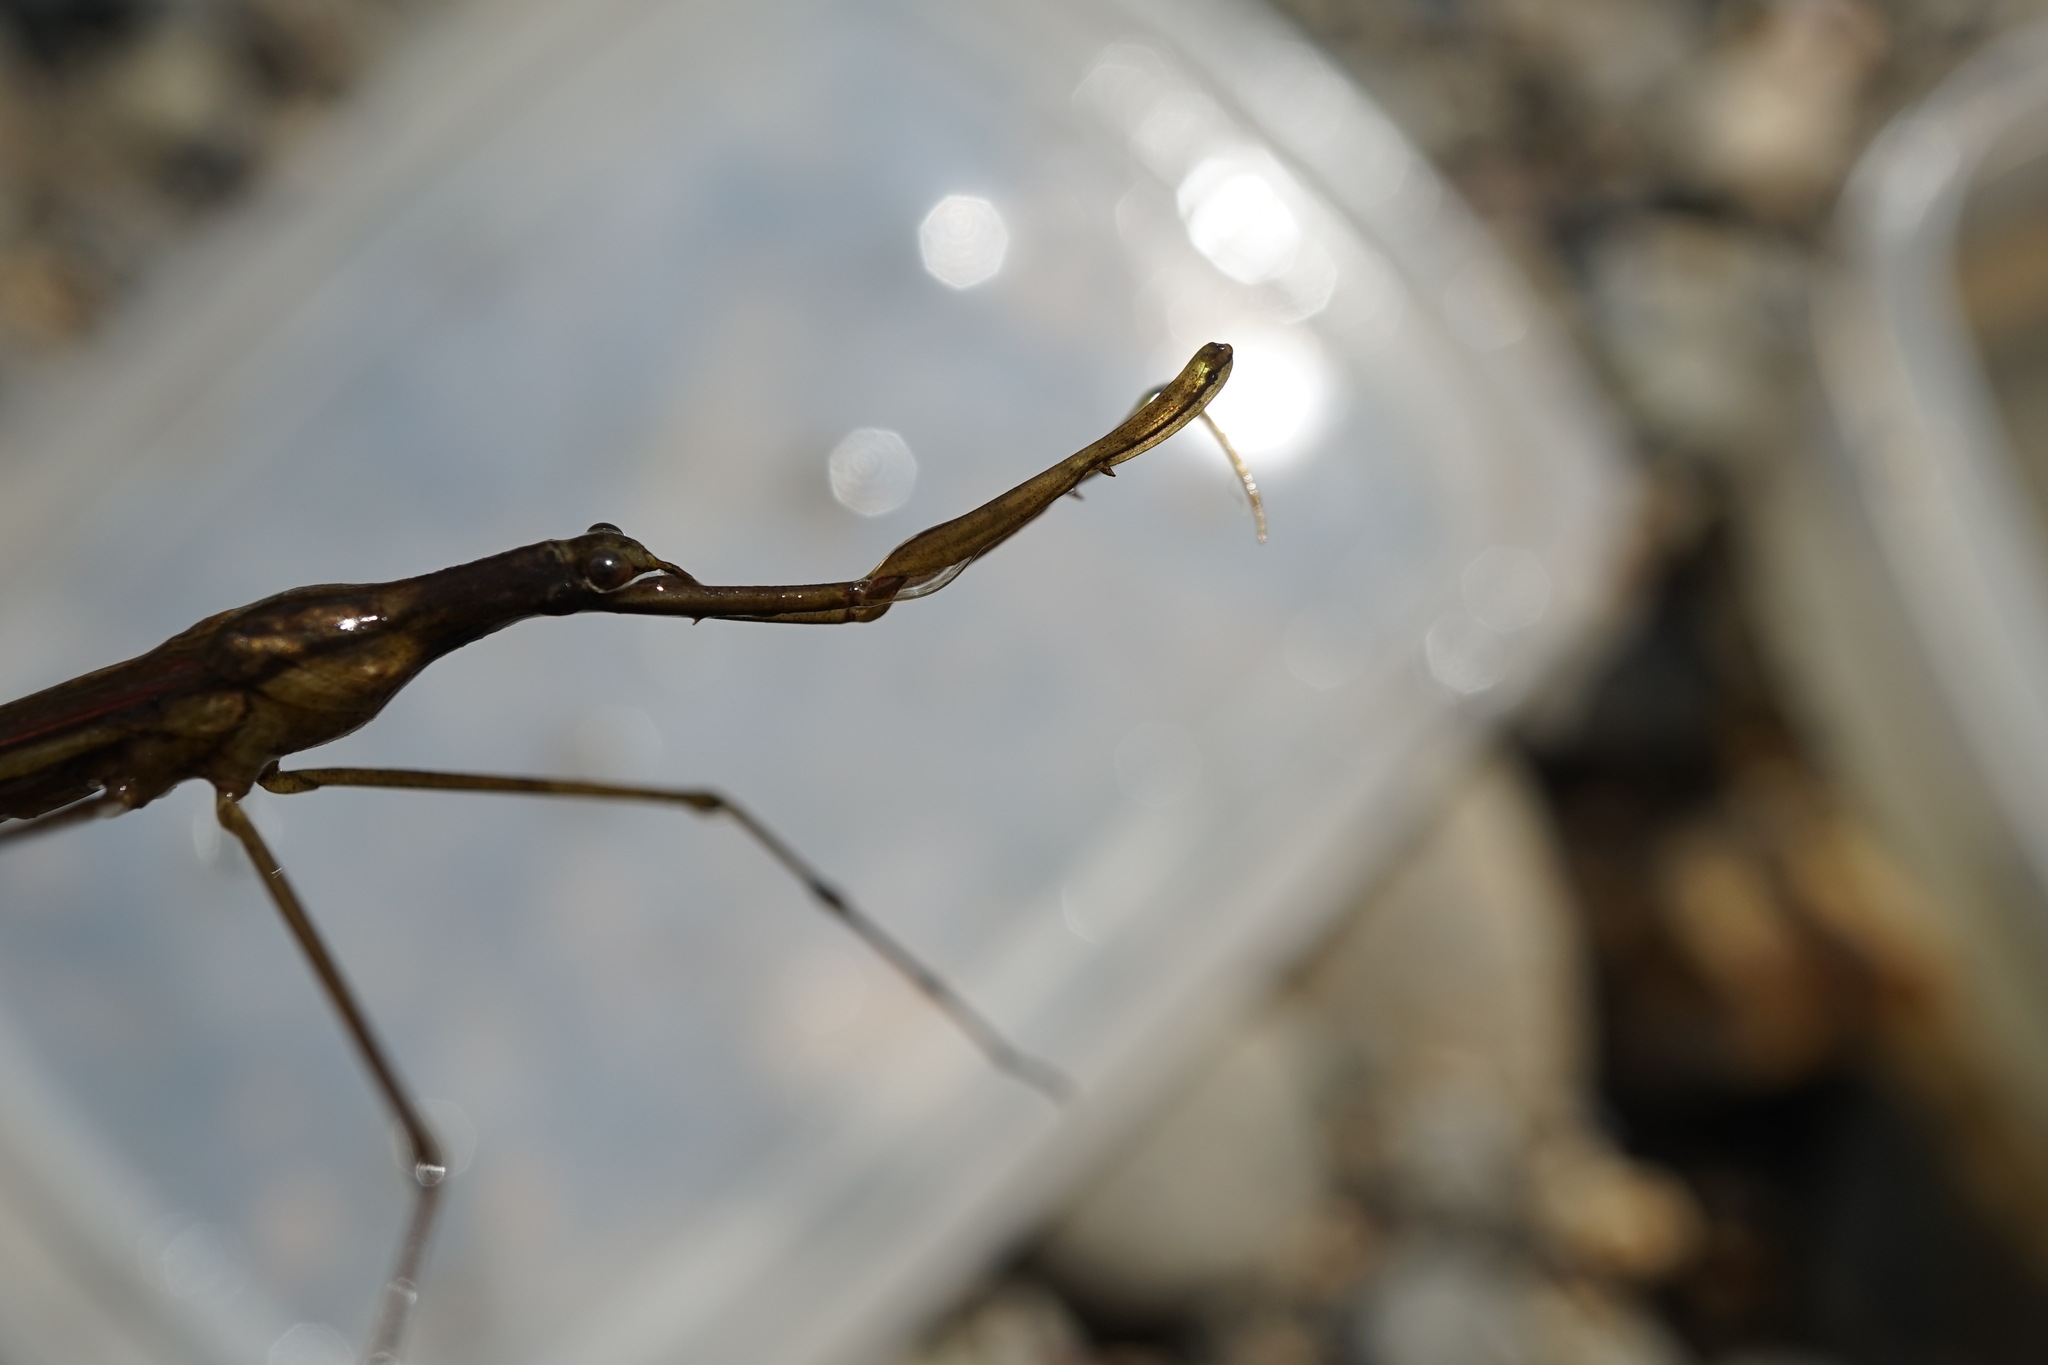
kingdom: Animalia
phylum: Arthropoda
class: Insecta
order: Hemiptera
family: Nepidae
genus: Ranatra
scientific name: Ranatra chinensis
